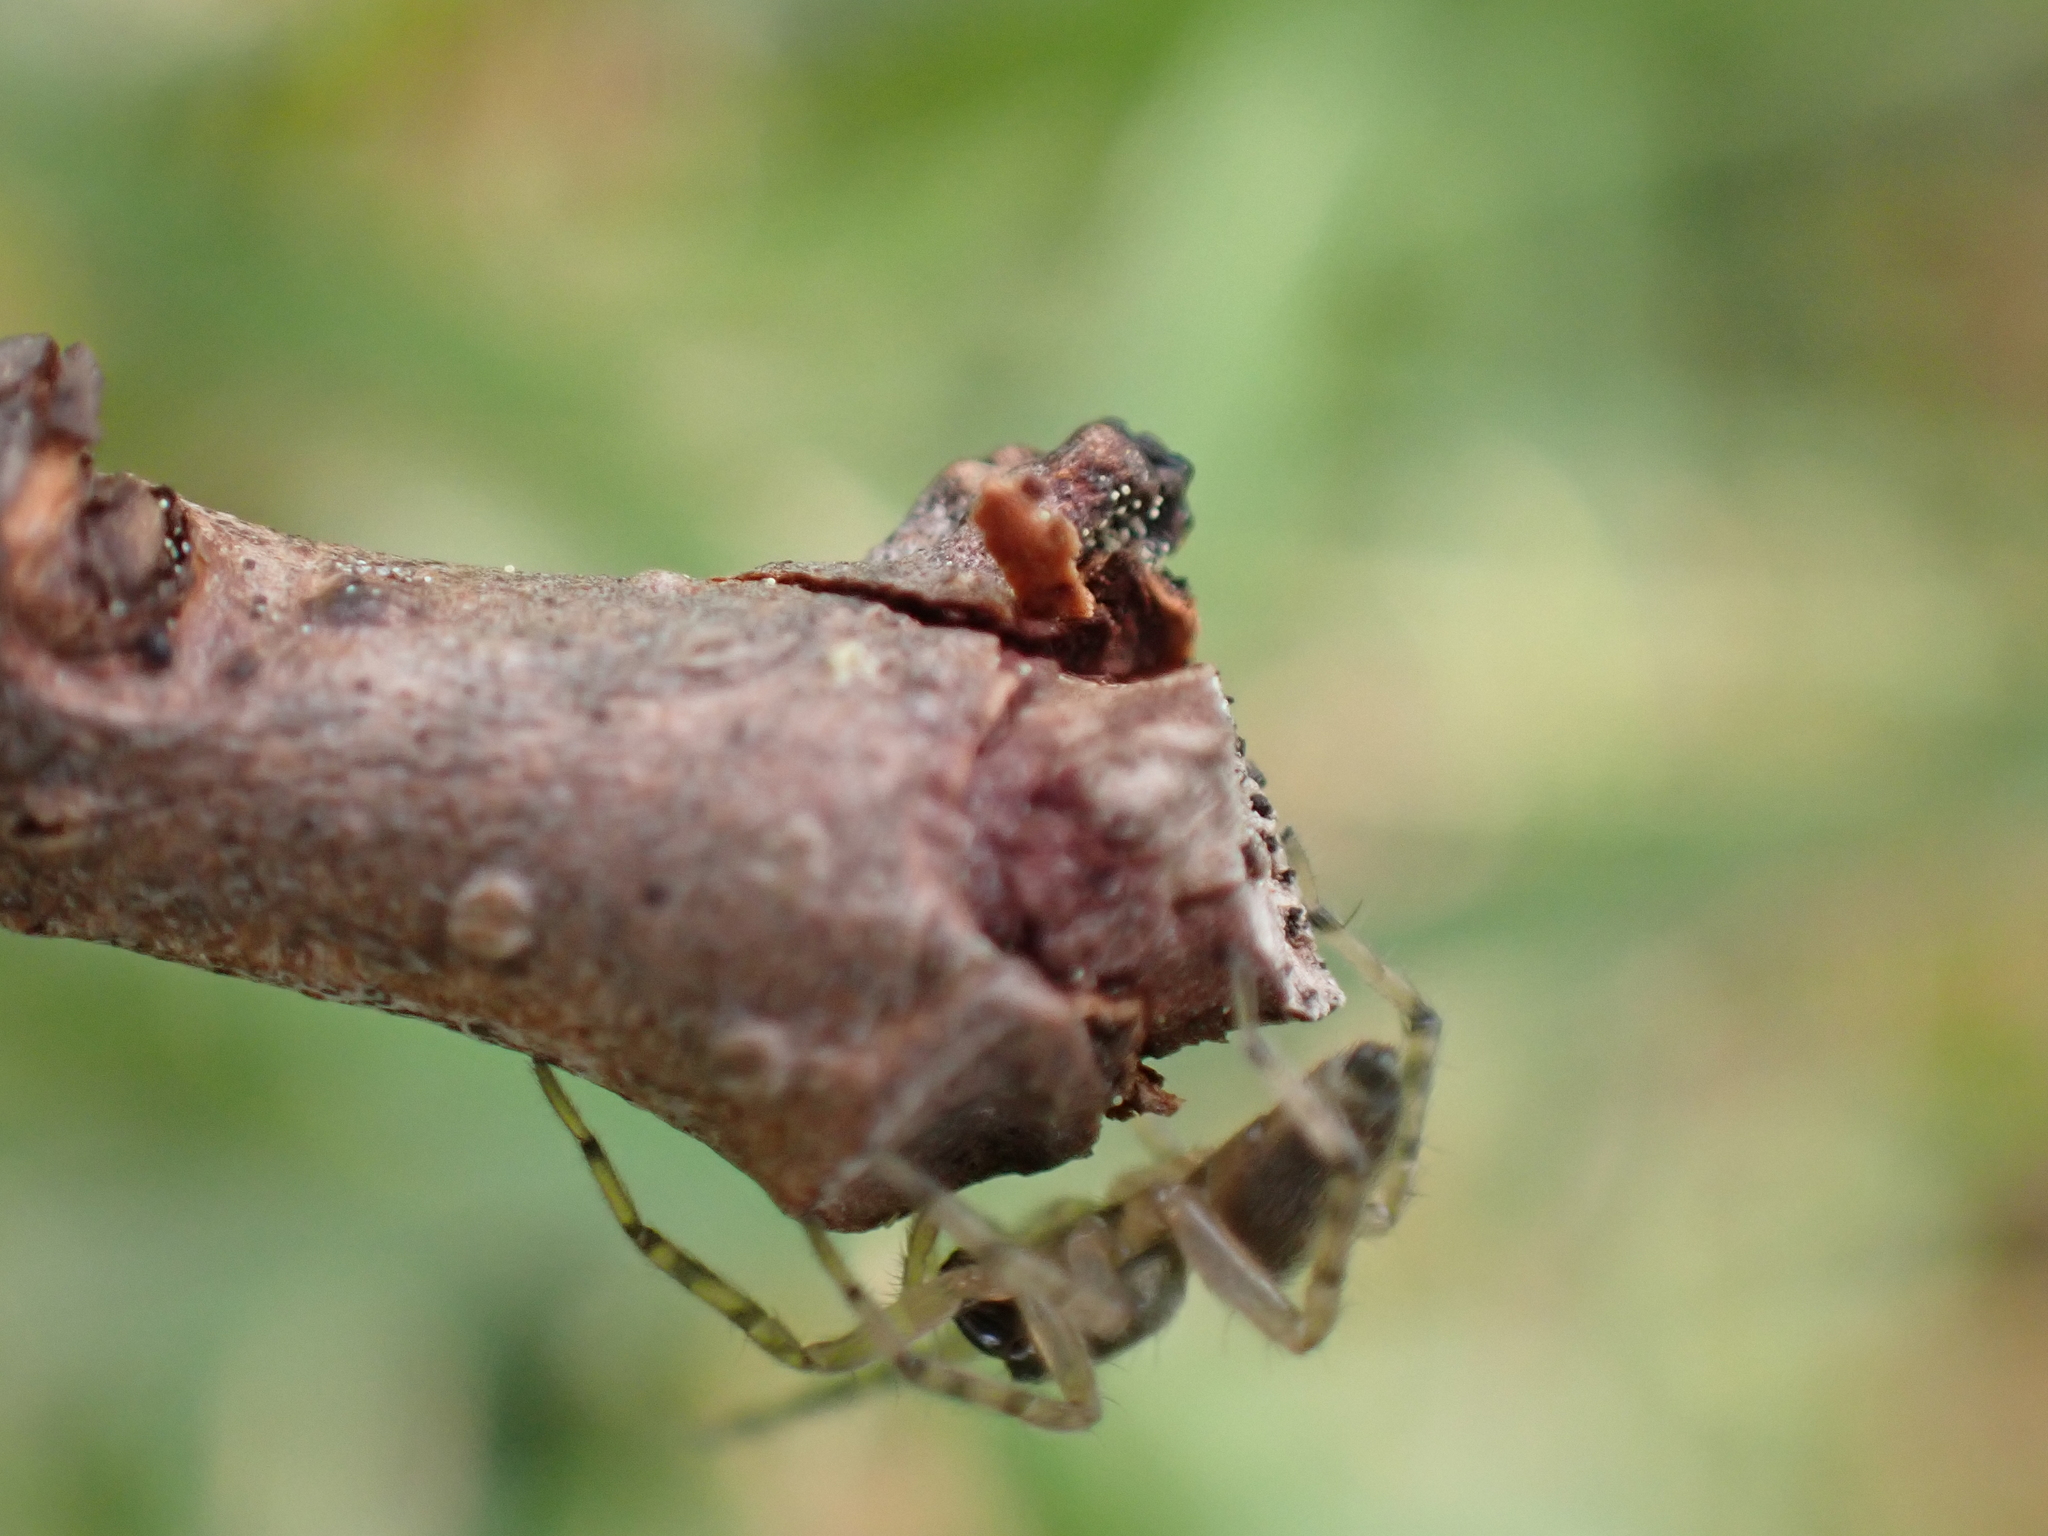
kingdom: Animalia
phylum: Arthropoda
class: Arachnida
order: Araneae
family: Anyphaenidae
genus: Lupettiana
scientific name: Lupettiana mordax
